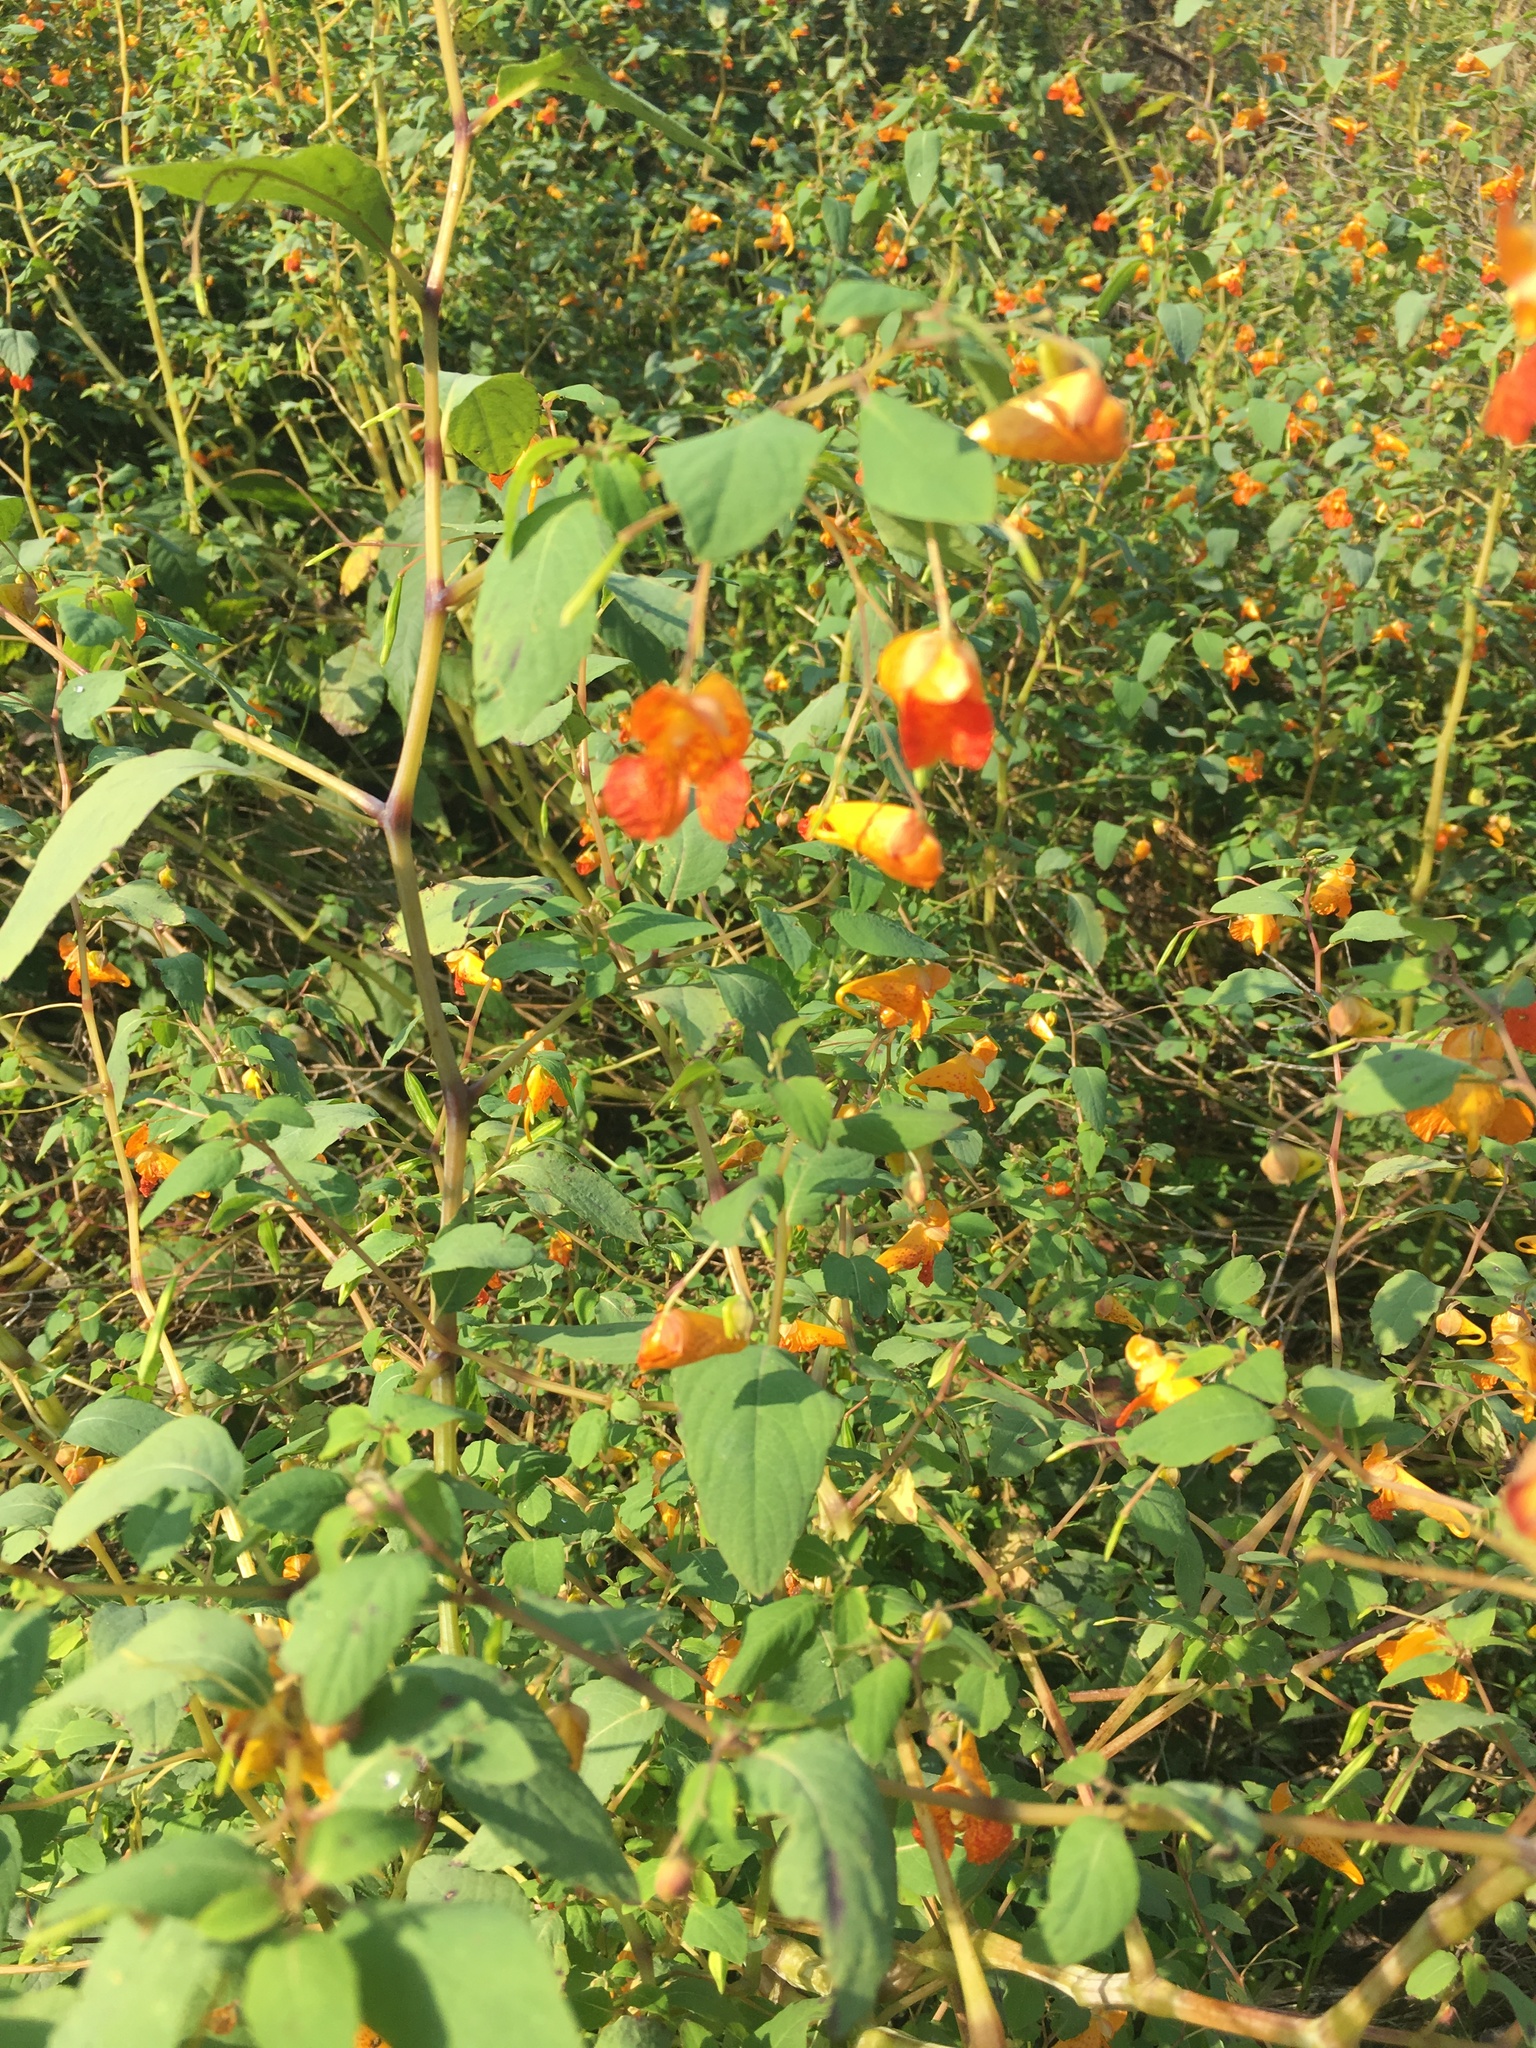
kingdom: Plantae
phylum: Tracheophyta
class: Magnoliopsida
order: Ericales
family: Balsaminaceae
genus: Impatiens
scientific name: Impatiens capensis
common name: Orange balsam
